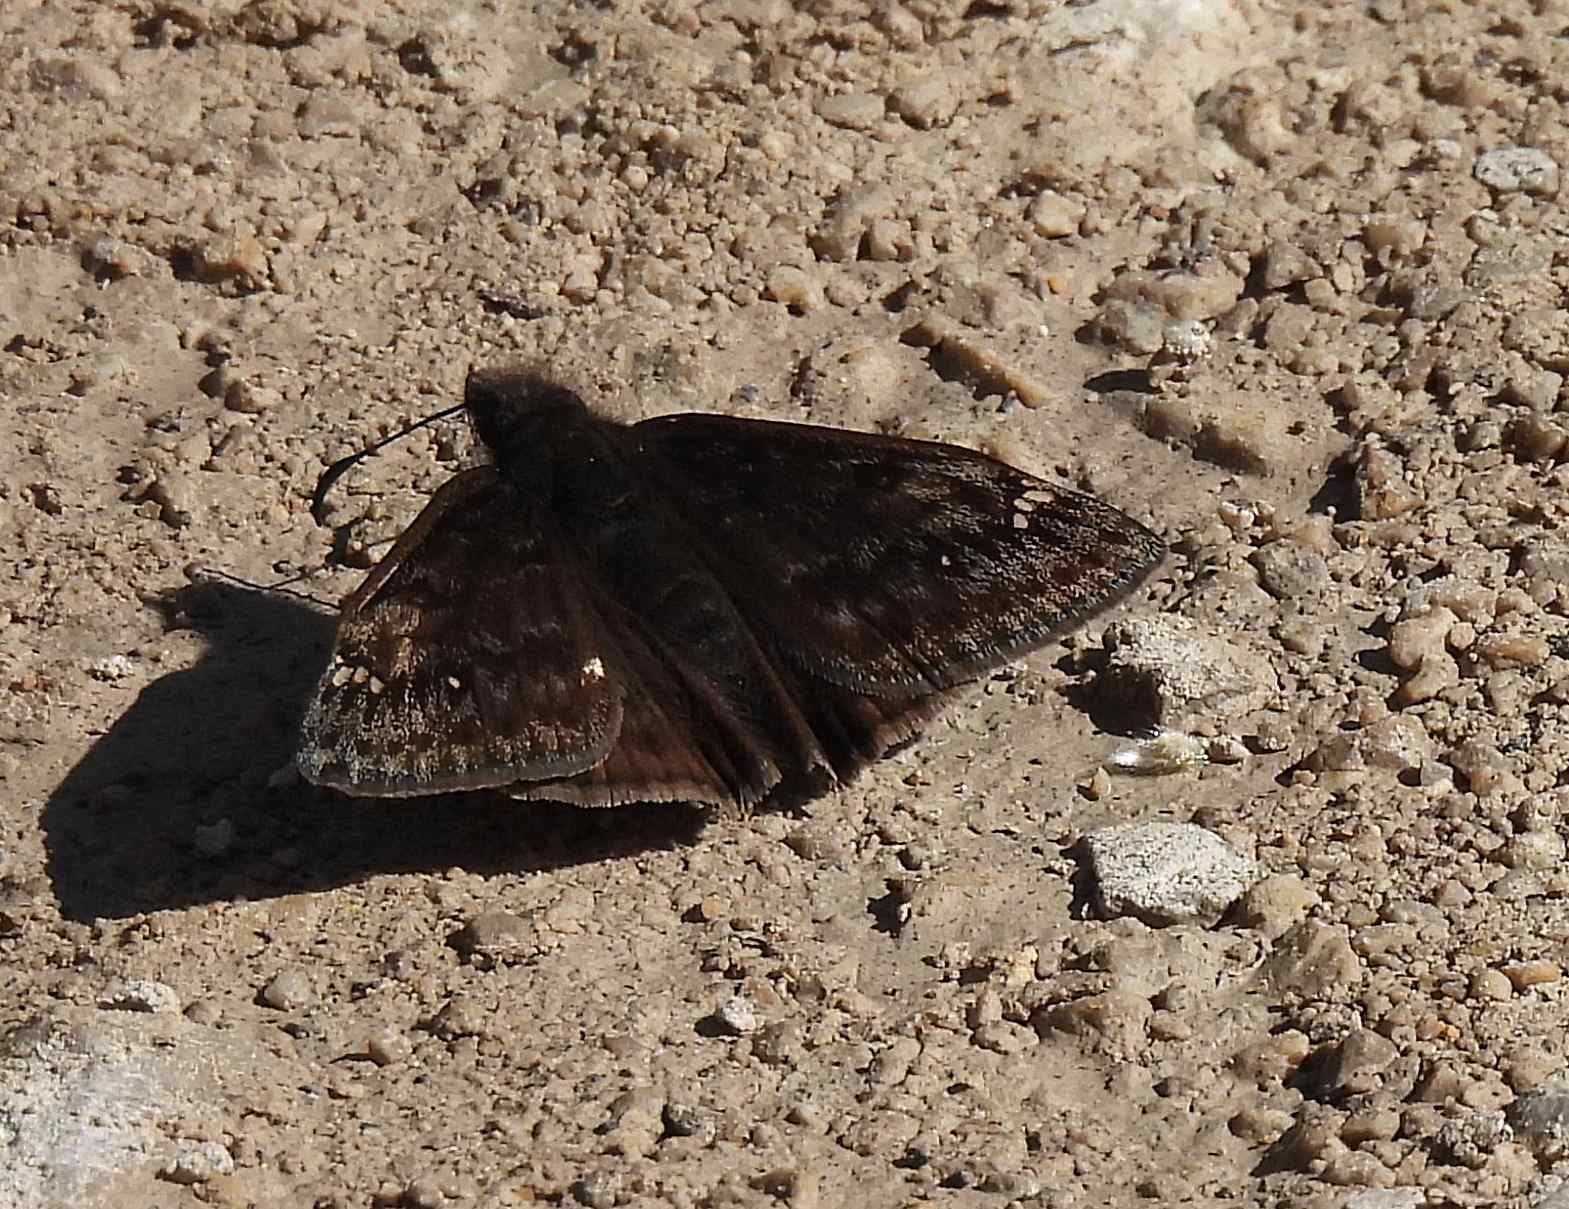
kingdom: Animalia
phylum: Arthropoda
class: Insecta
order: Lepidoptera
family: Hesperiidae
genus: Erynnis
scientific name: Erynnis juvenalis
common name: Juvenal's duskywing
